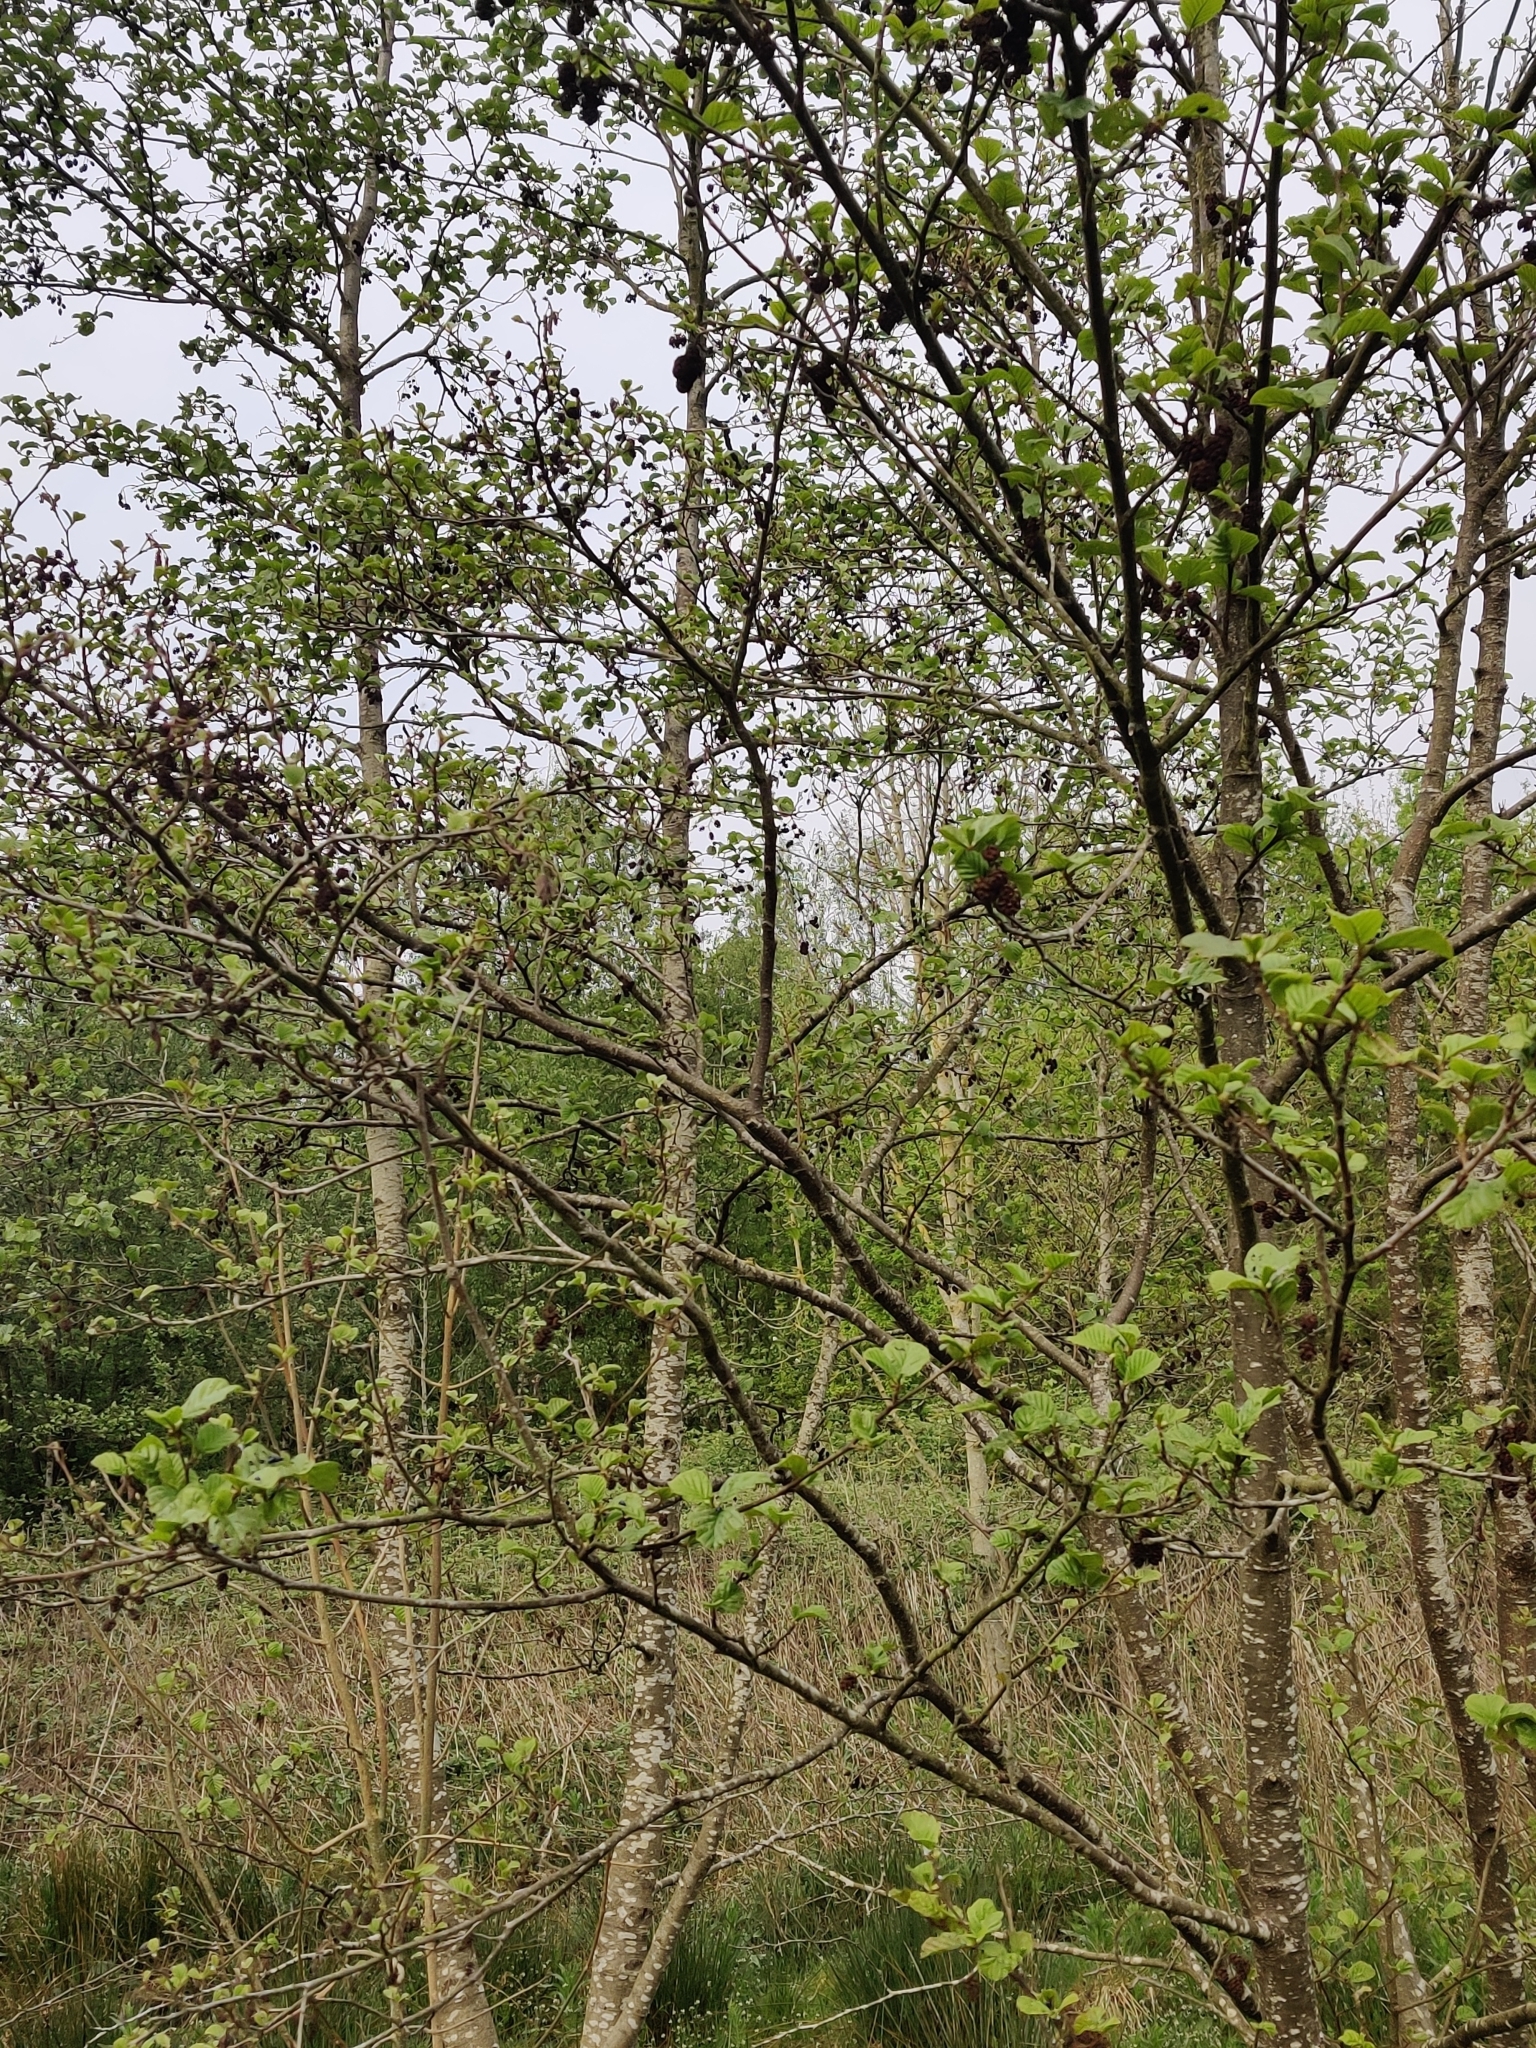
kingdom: Plantae
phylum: Tracheophyta
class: Magnoliopsida
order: Fagales
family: Betulaceae
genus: Alnus
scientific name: Alnus glutinosa
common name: Black alder
